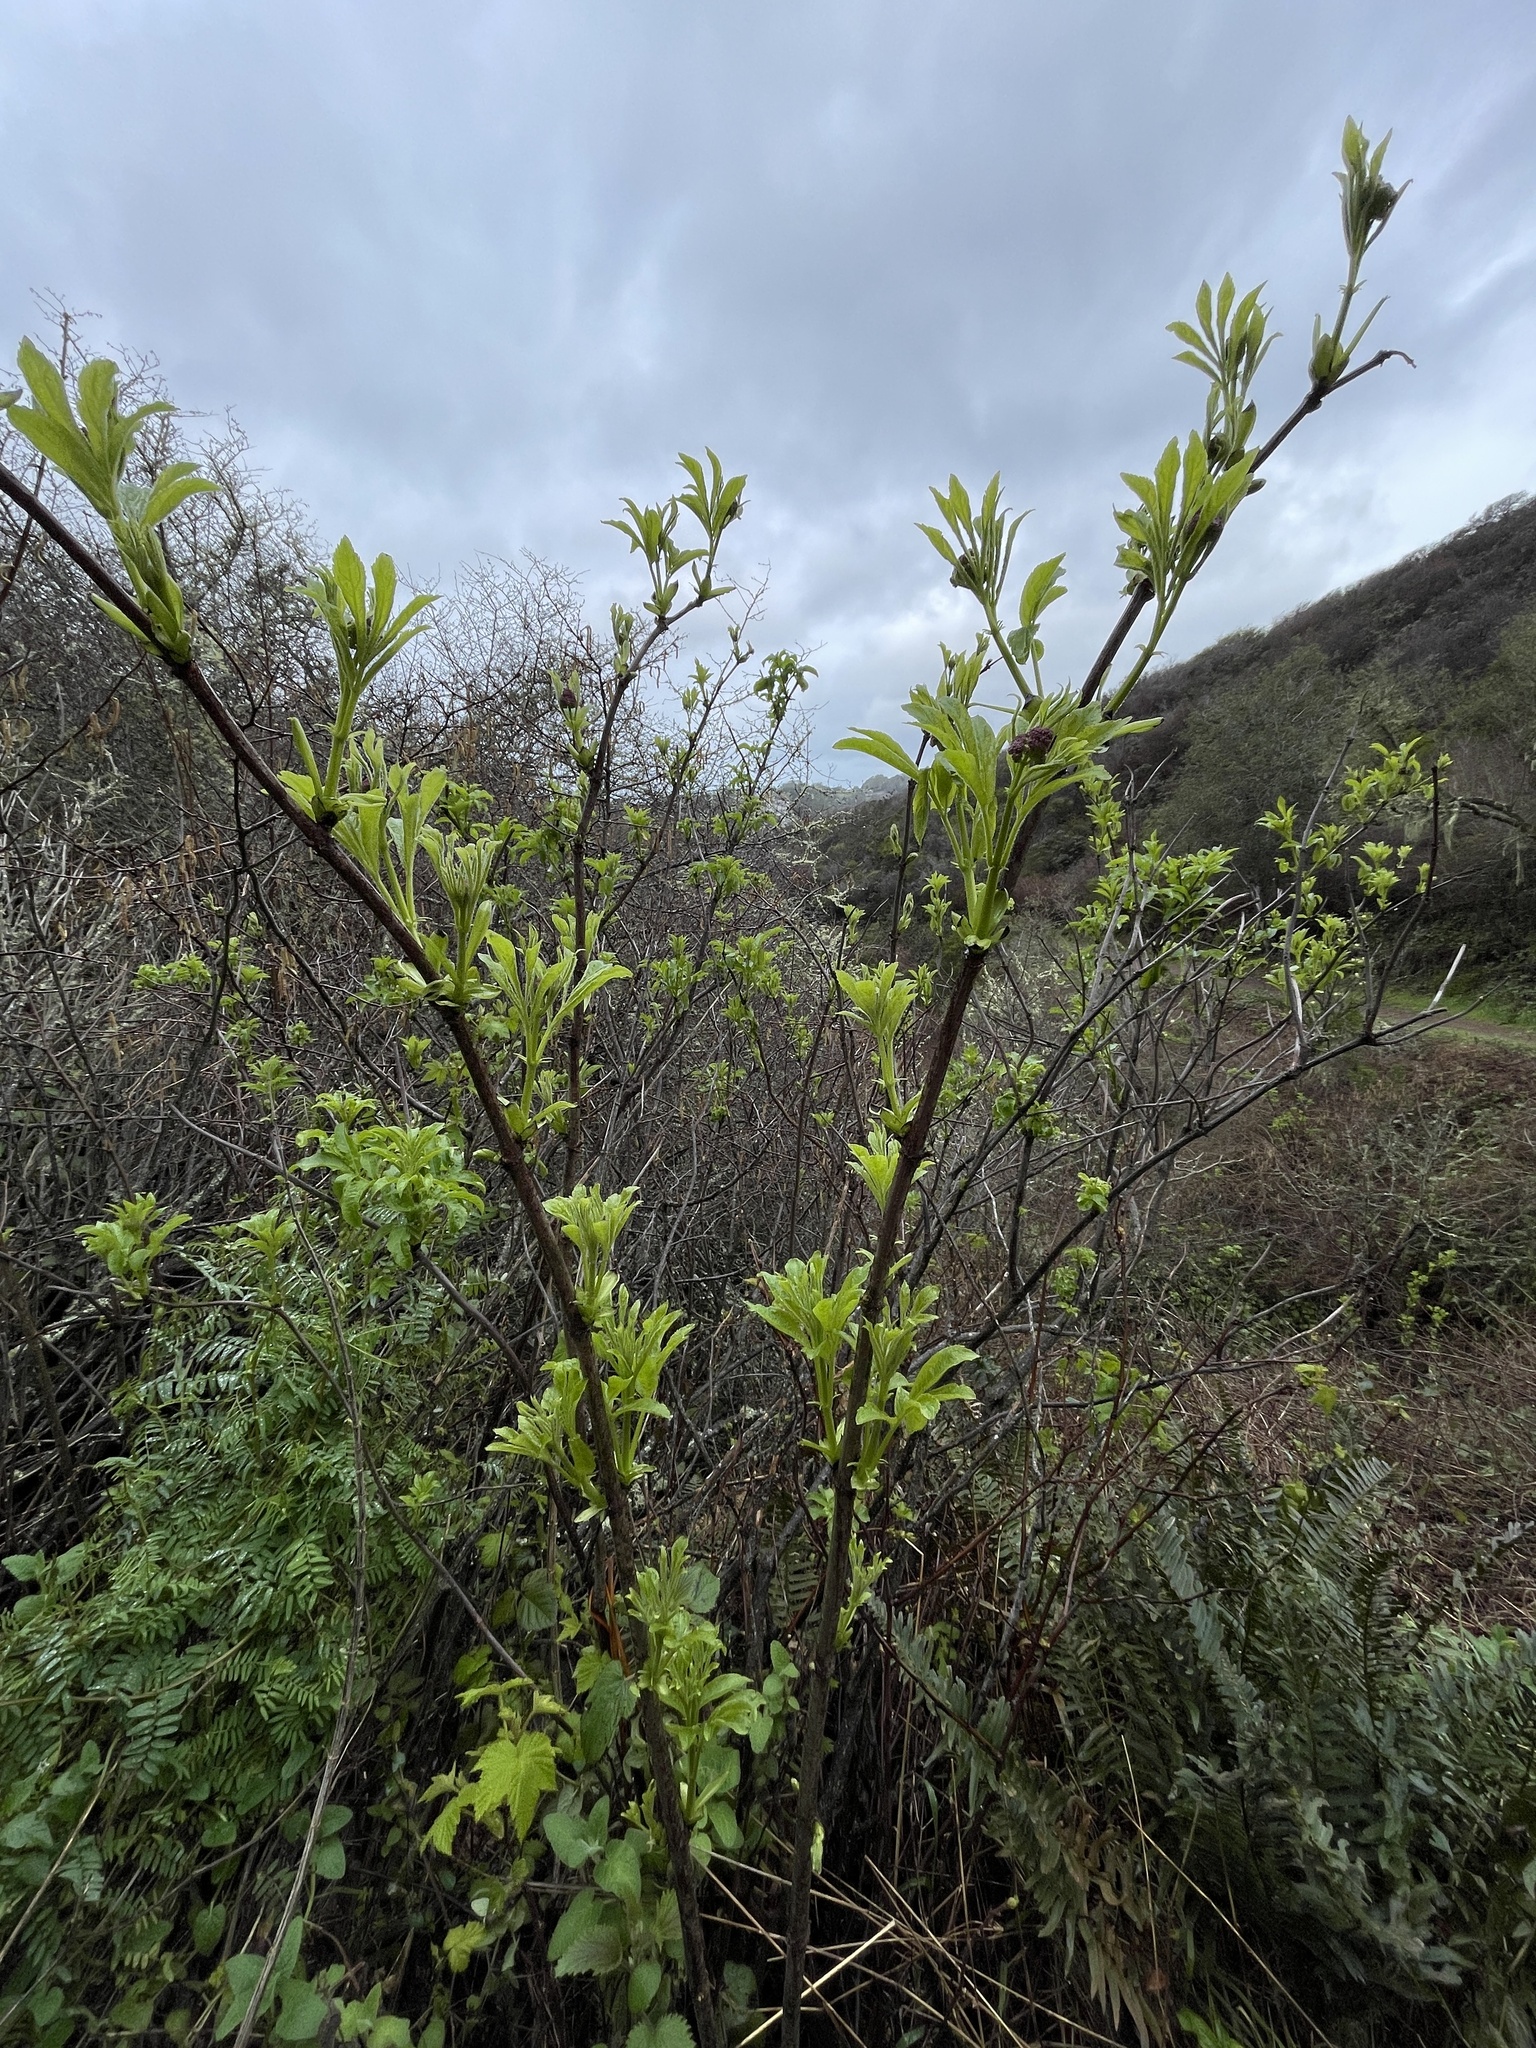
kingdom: Plantae
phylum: Tracheophyta
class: Magnoliopsida
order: Dipsacales
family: Viburnaceae
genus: Sambucus
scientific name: Sambucus racemosa
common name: Red-berried elder
